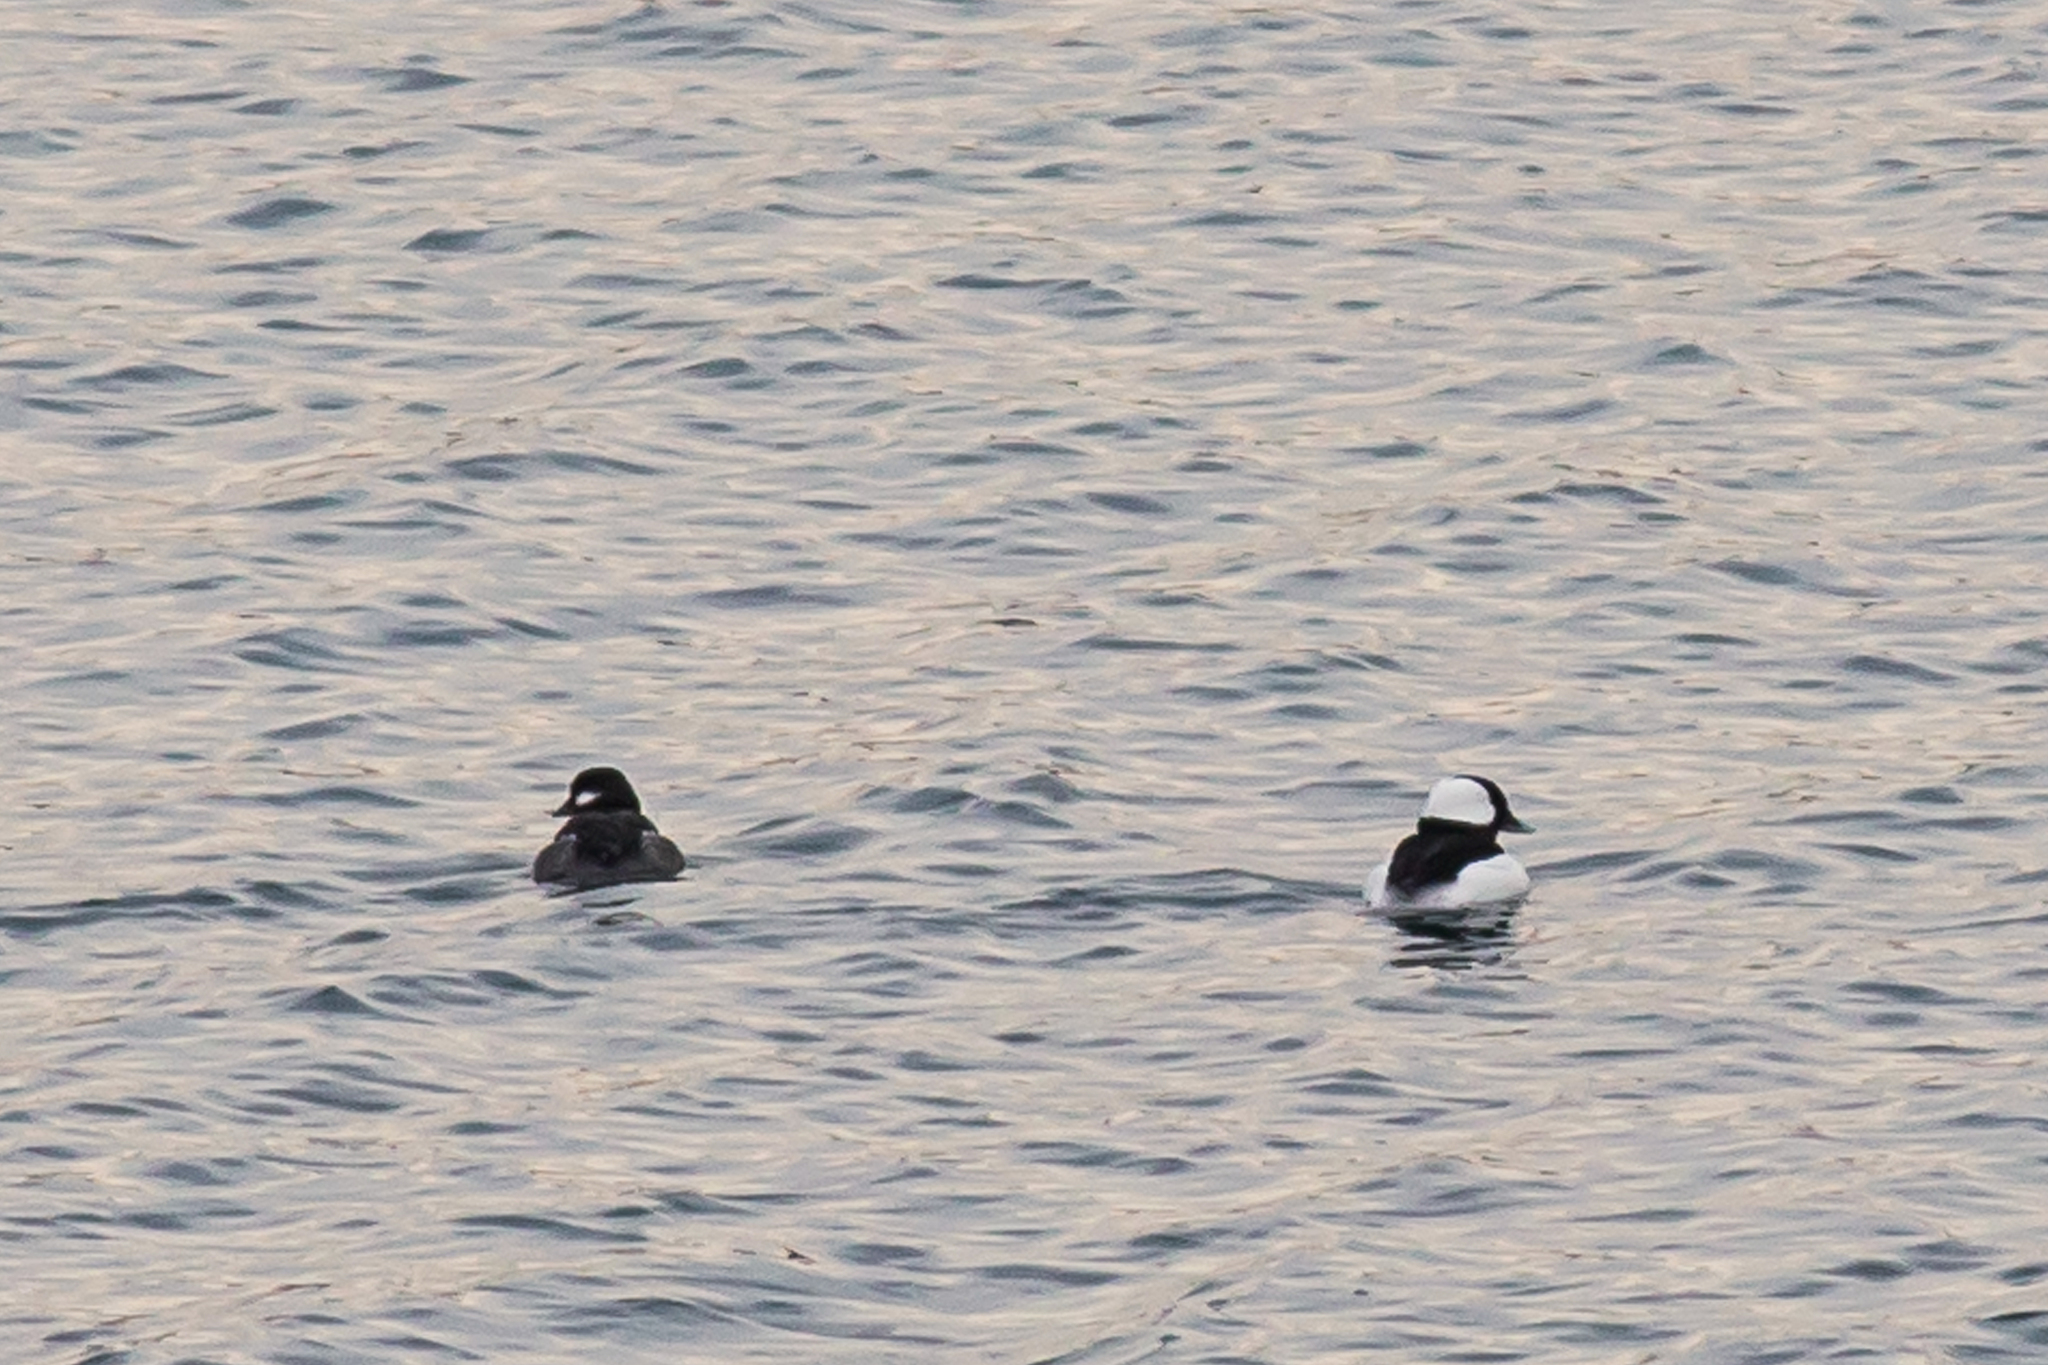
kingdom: Animalia
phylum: Chordata
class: Aves
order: Anseriformes
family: Anatidae
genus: Bucephala
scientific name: Bucephala albeola
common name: Bufflehead
